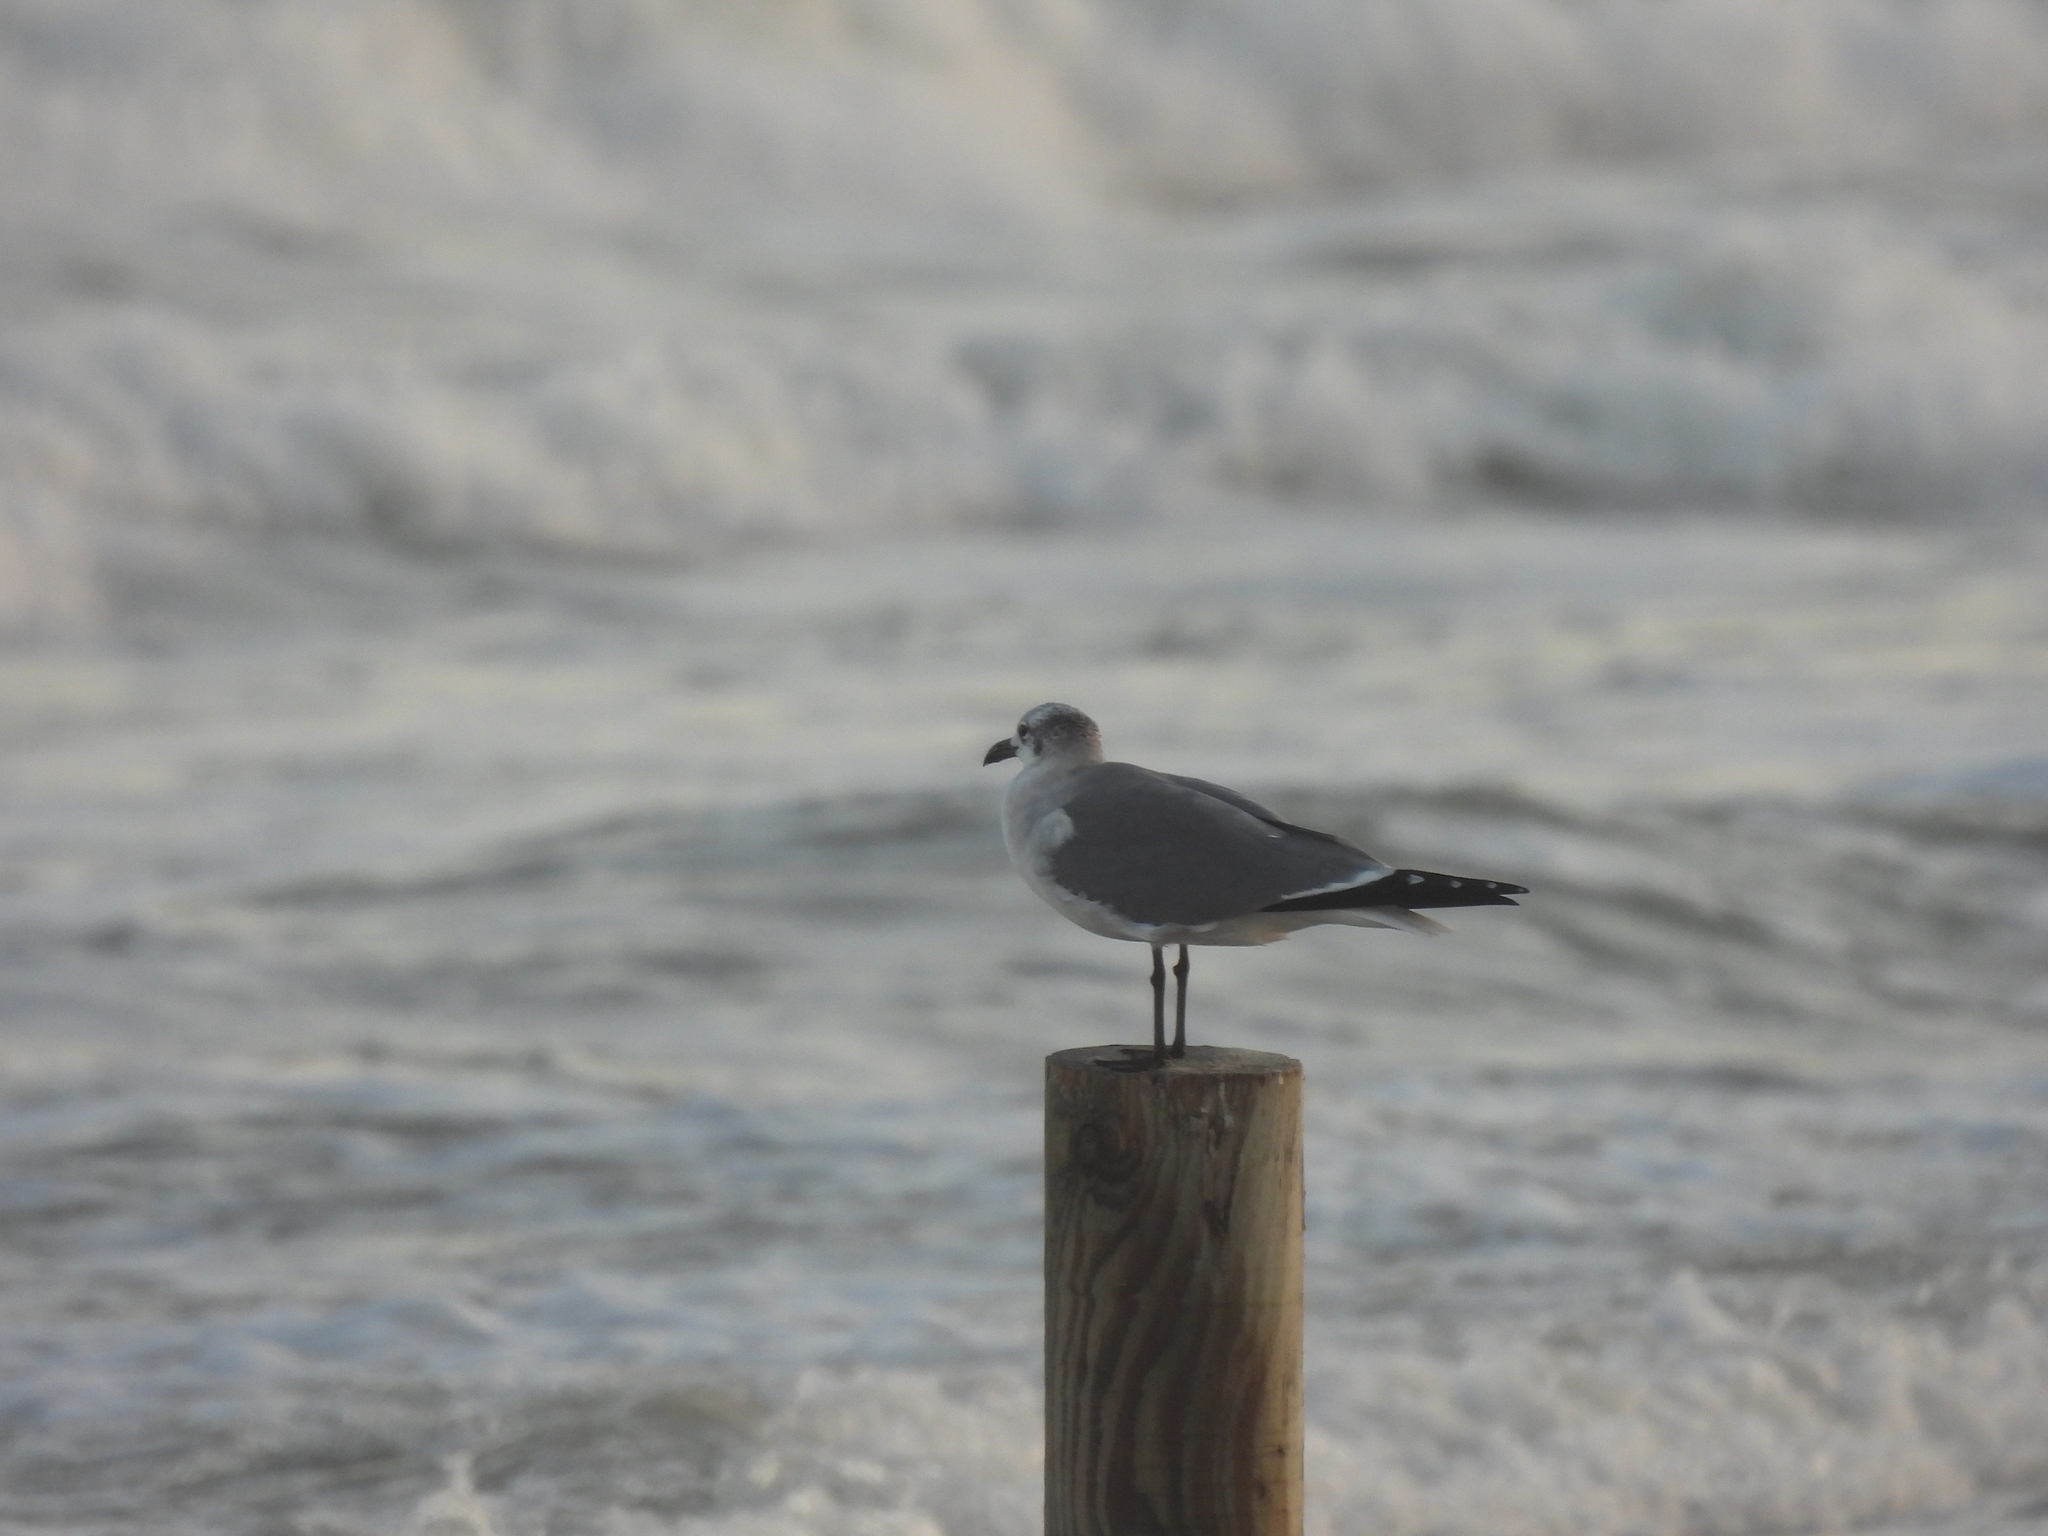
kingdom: Animalia
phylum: Chordata
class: Aves
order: Charadriiformes
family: Laridae
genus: Leucophaeus
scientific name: Leucophaeus atricilla
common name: Laughing gull
